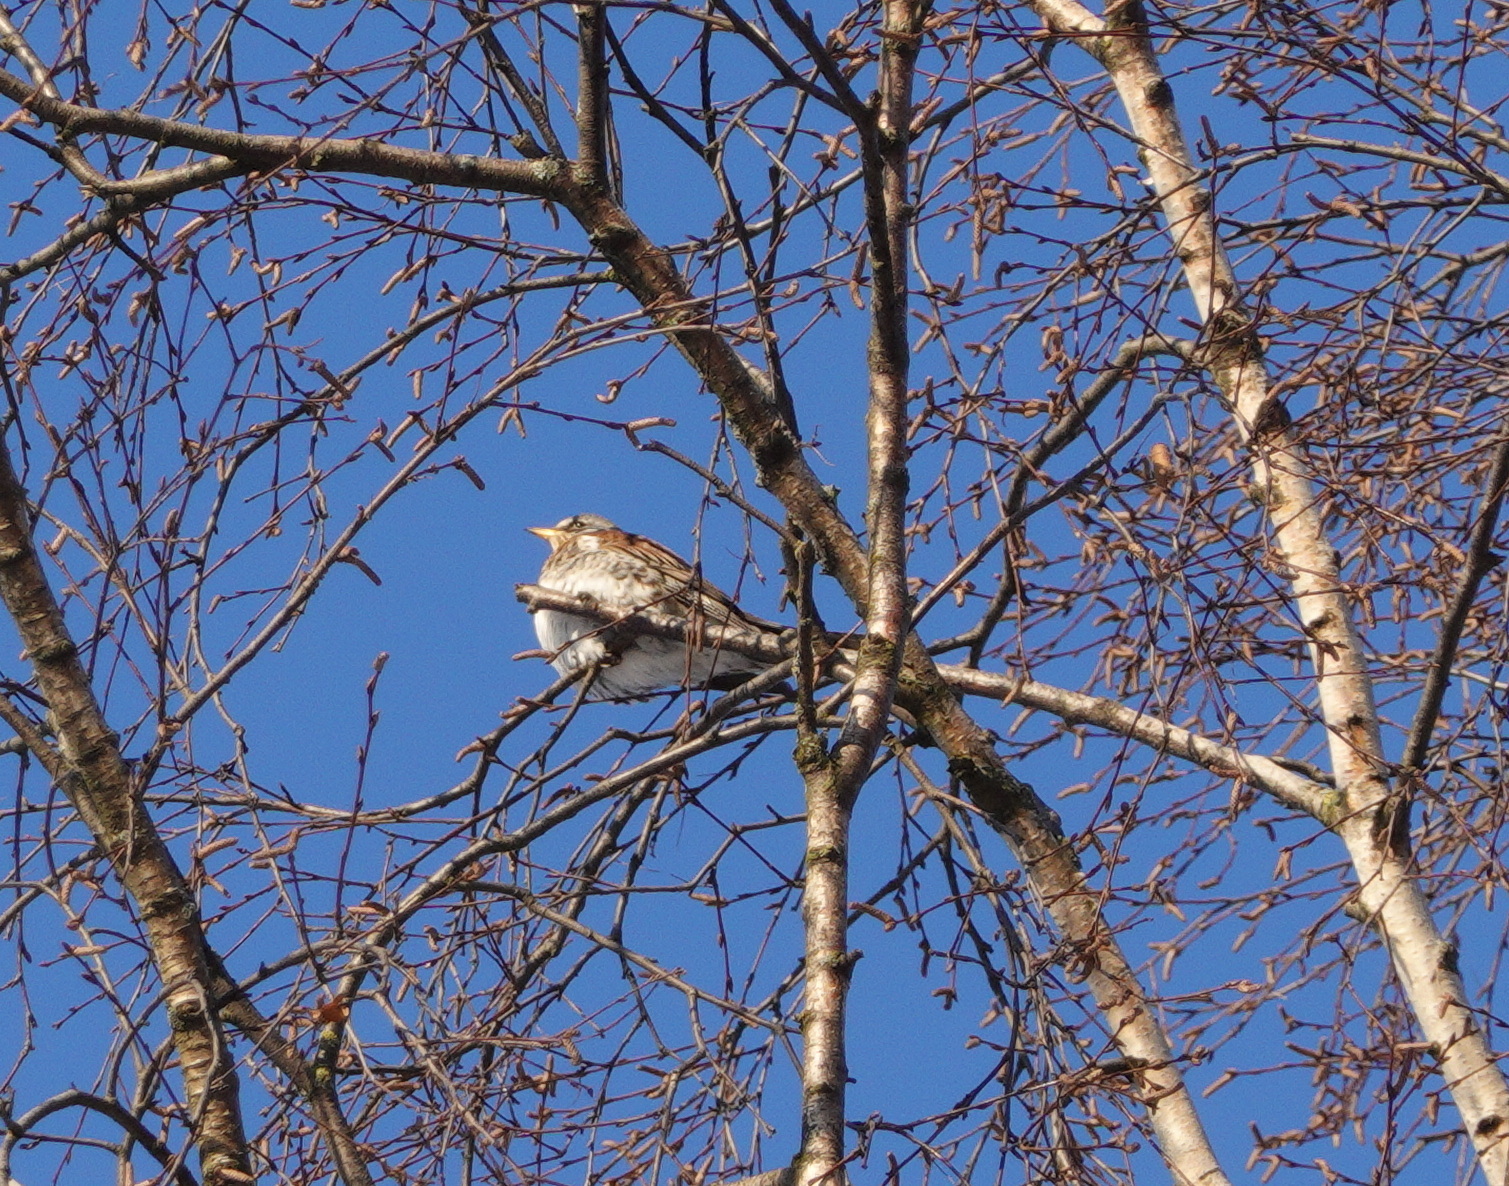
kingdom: Animalia
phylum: Chordata
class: Aves
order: Passeriformes
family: Turdidae
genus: Turdus
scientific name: Turdus pilaris
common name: Fieldfare
